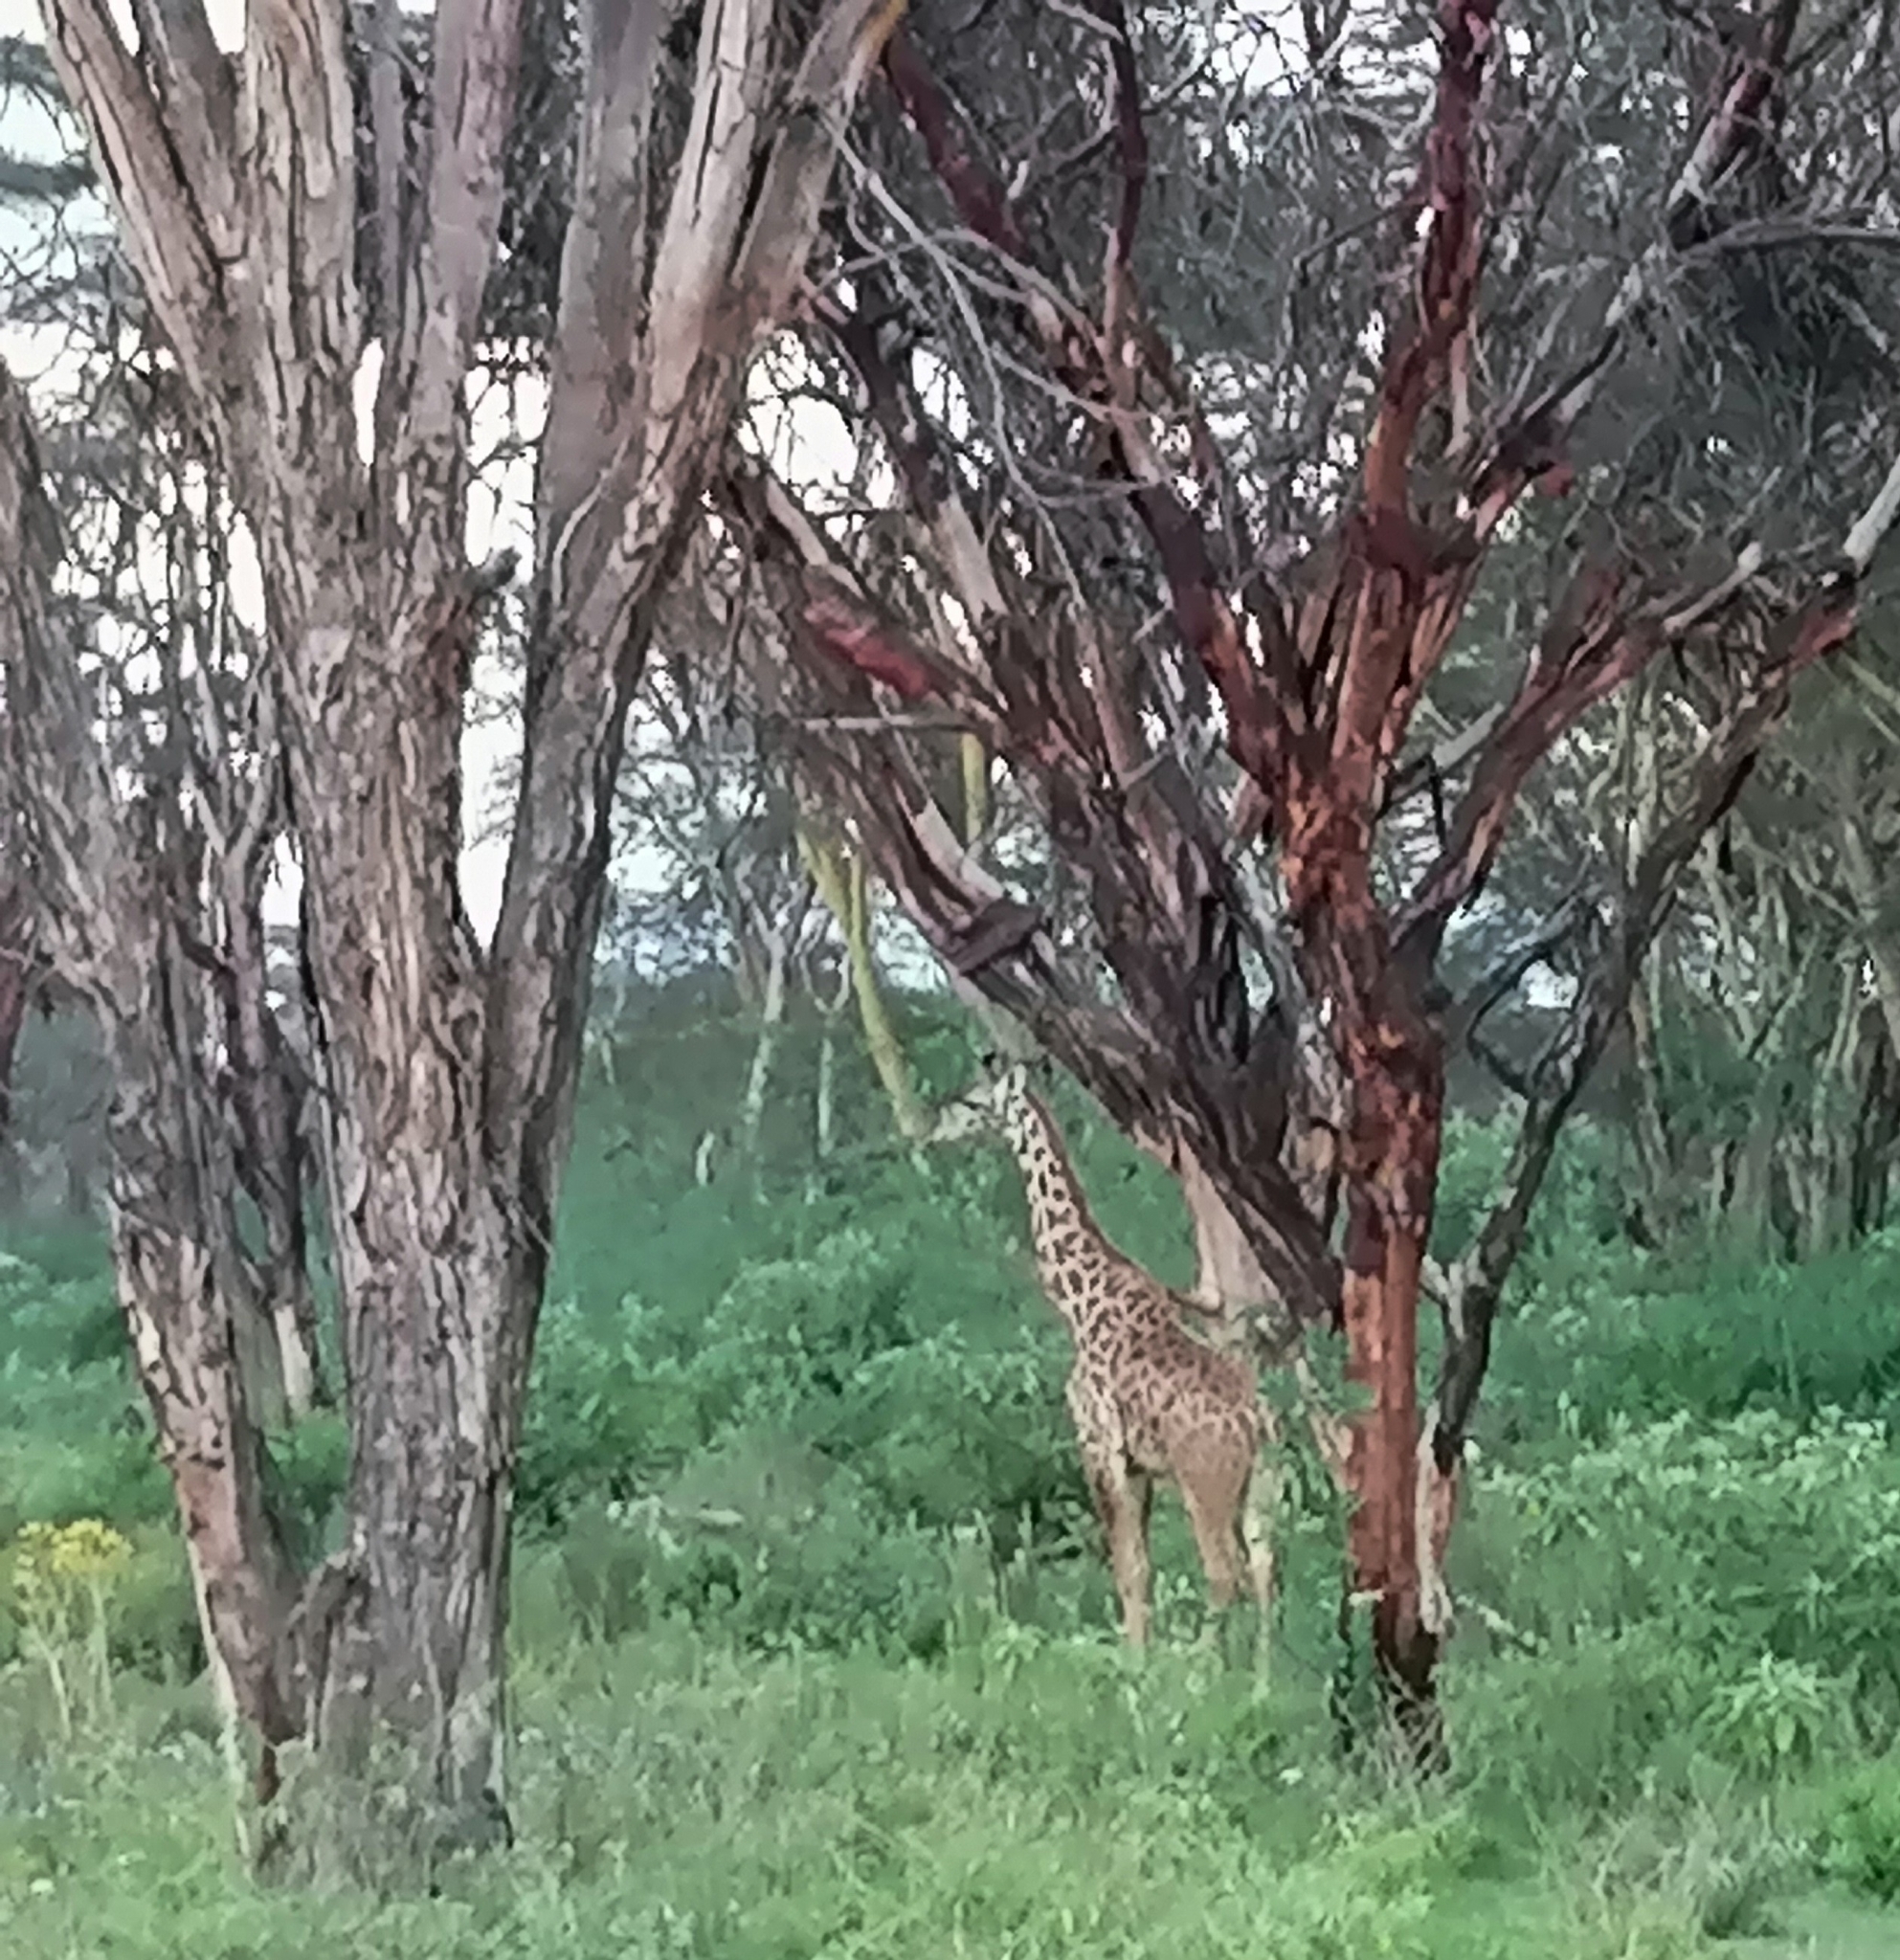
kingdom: Animalia
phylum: Chordata
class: Mammalia
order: Artiodactyla
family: Giraffidae
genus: Giraffa
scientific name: Giraffa tippelskirchi
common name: Masai giraffe
